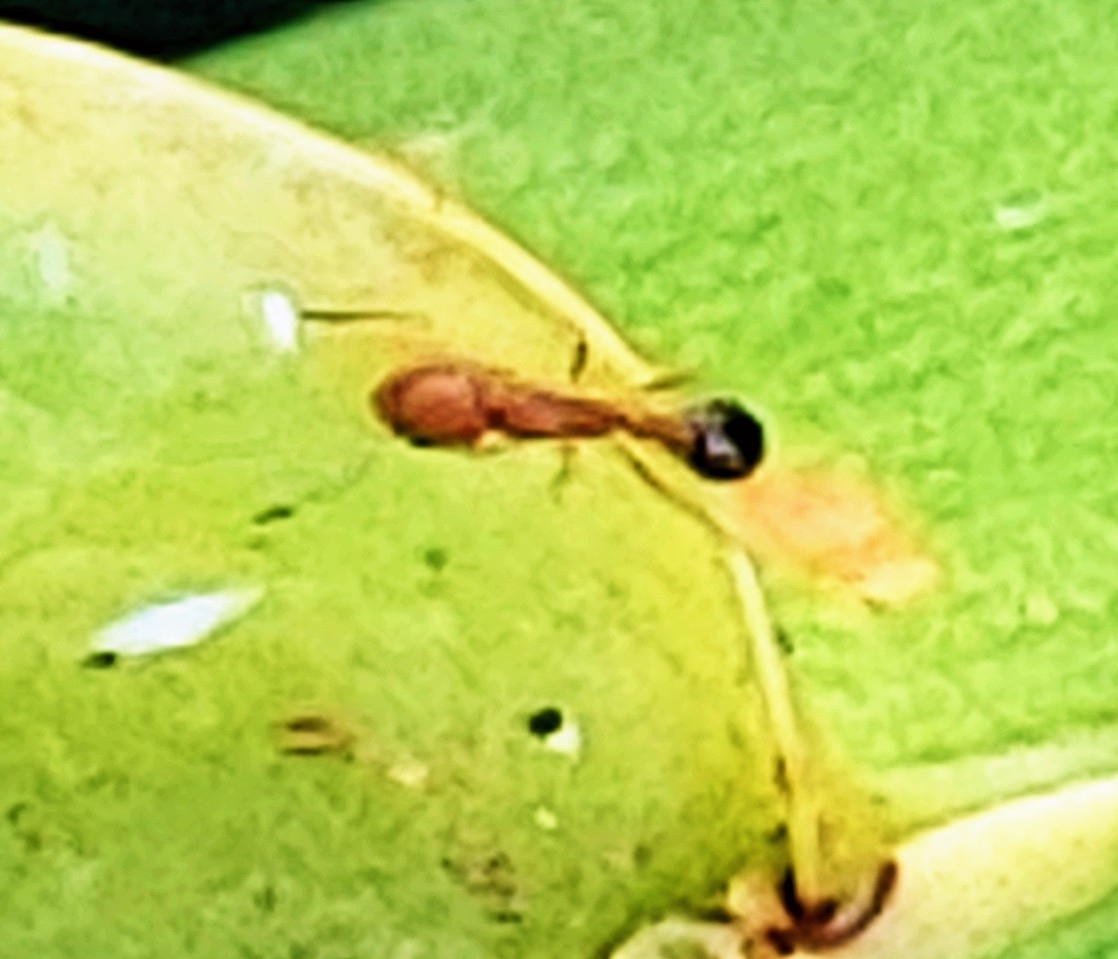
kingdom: Animalia
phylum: Arthropoda
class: Insecta
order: Hymenoptera
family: Formicidae
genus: Tetramorium
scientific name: Tetramorium bicarinatum
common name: Guinea ant
